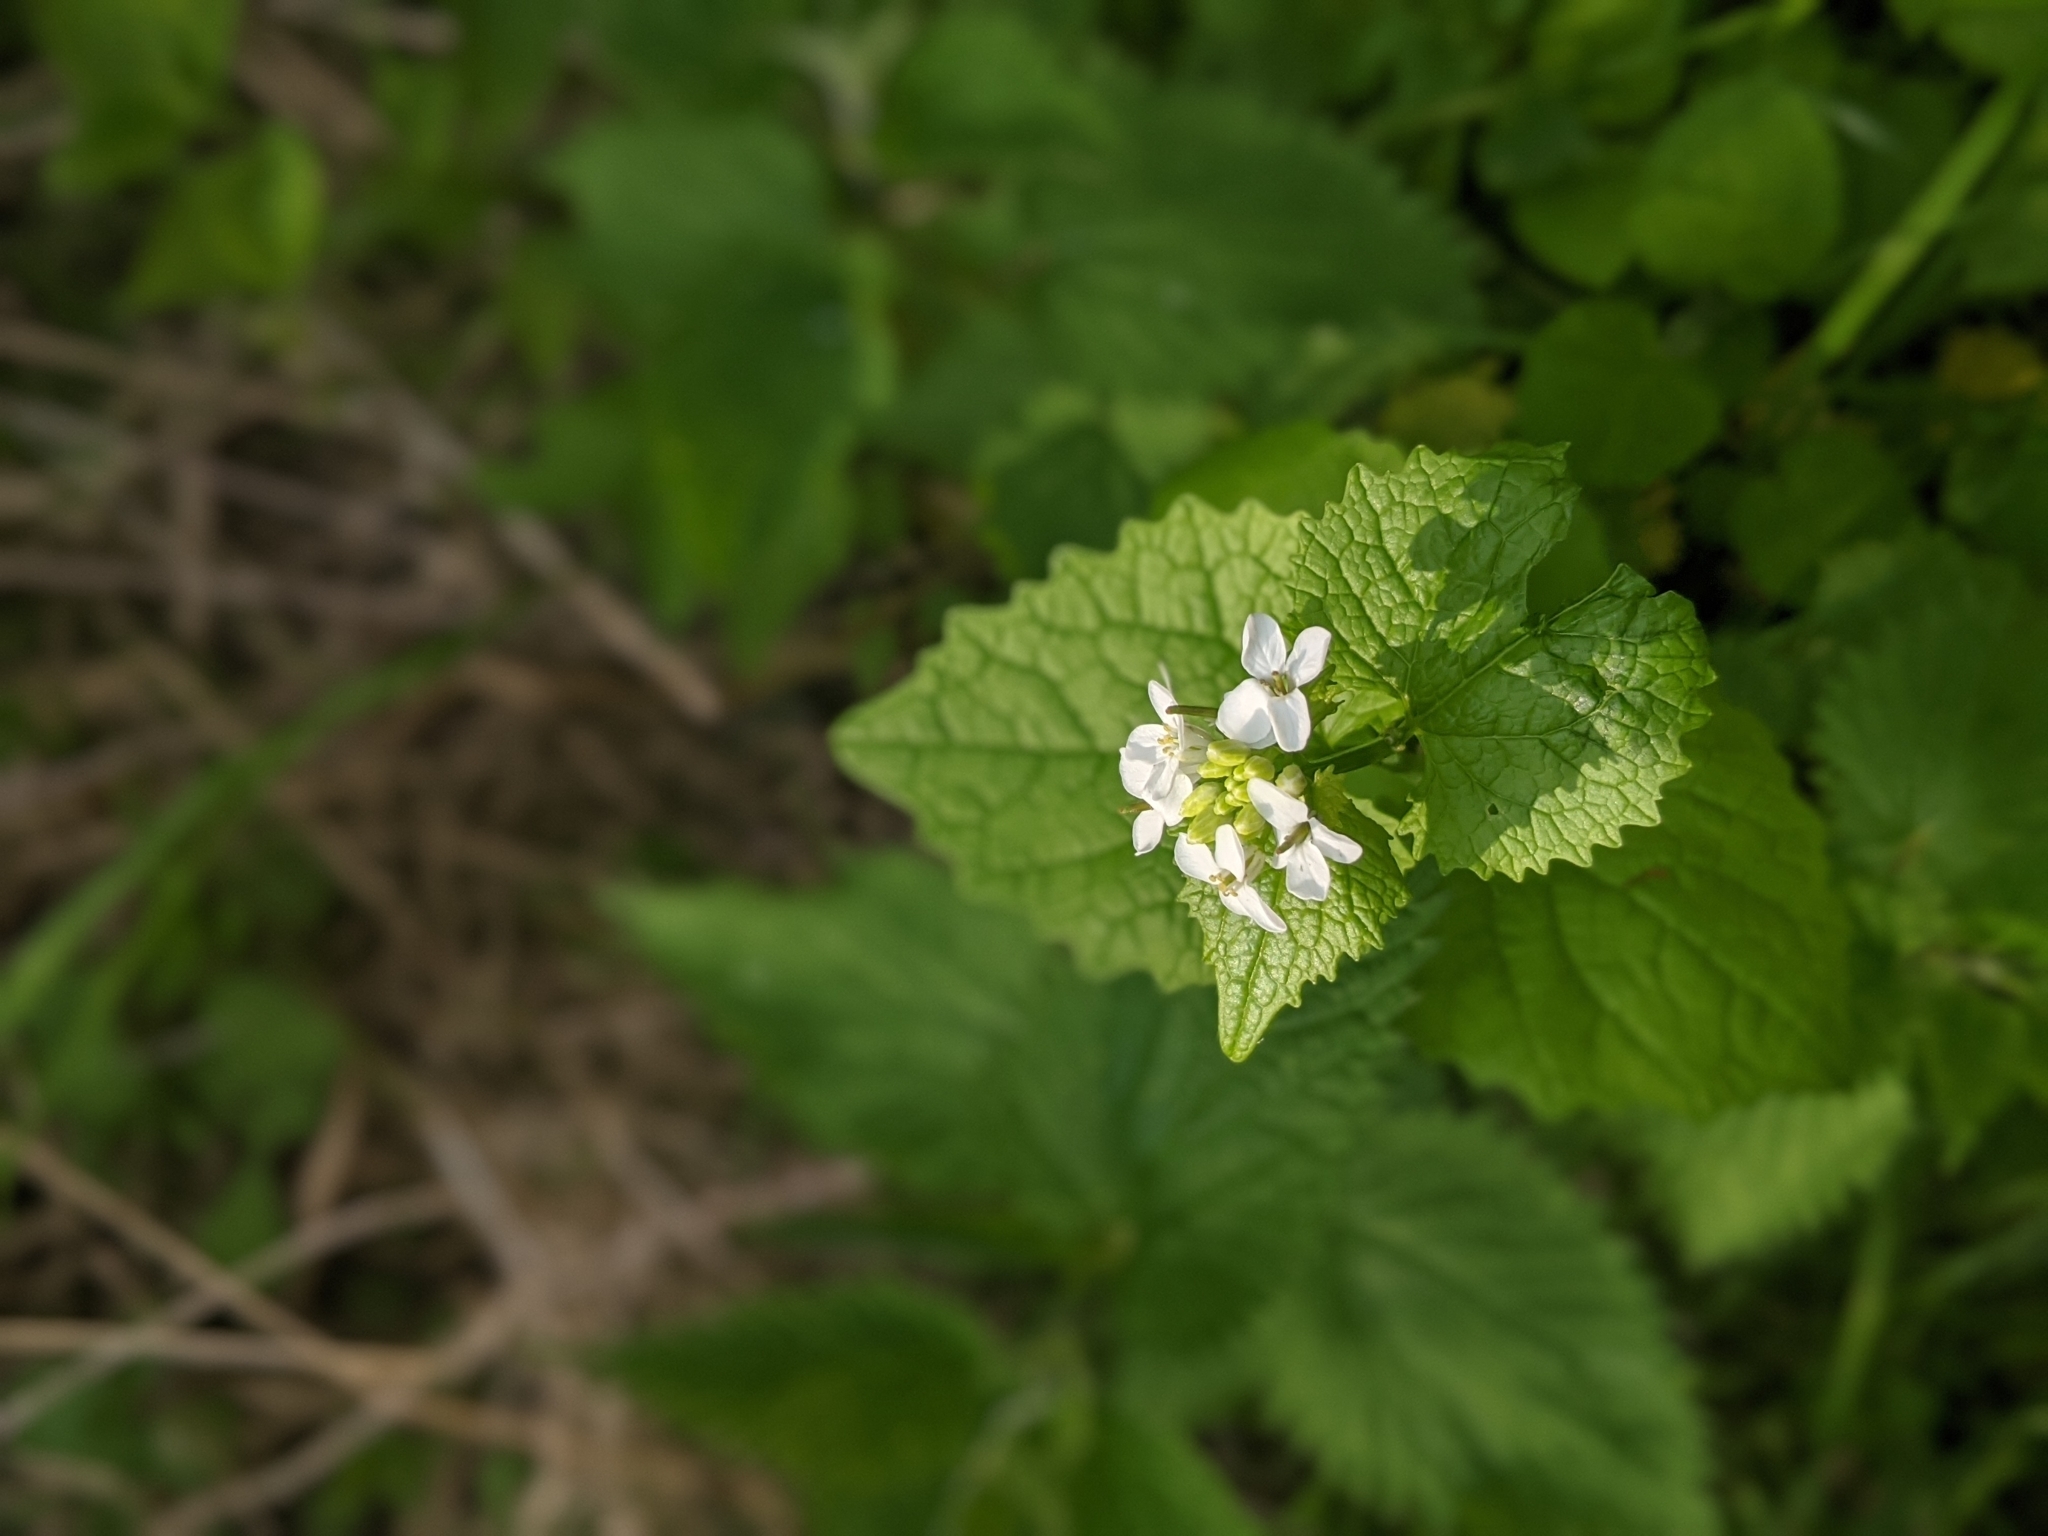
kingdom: Plantae
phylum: Tracheophyta
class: Magnoliopsida
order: Brassicales
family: Brassicaceae
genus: Alliaria
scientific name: Alliaria petiolata
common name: Garlic mustard
